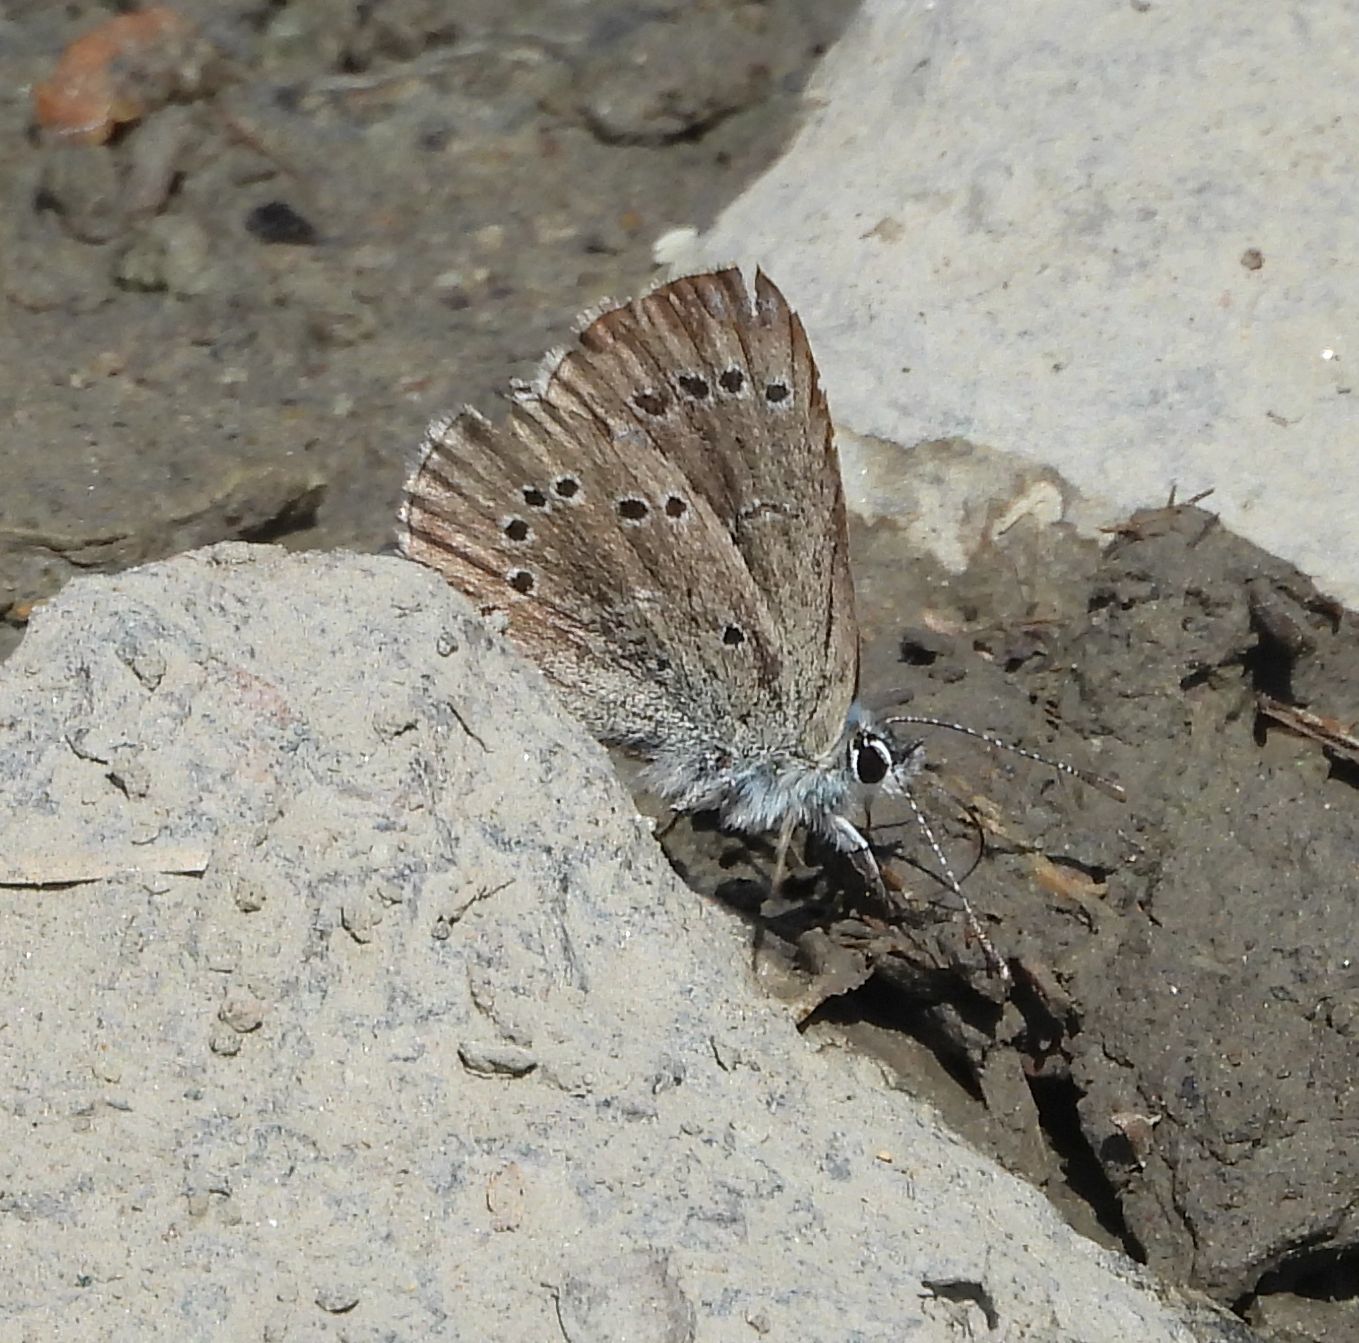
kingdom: Animalia
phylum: Arthropoda
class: Insecta
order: Lepidoptera
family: Lycaenidae
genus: Glaucopsyche
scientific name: Glaucopsyche lygdamus
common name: Silvery blue
